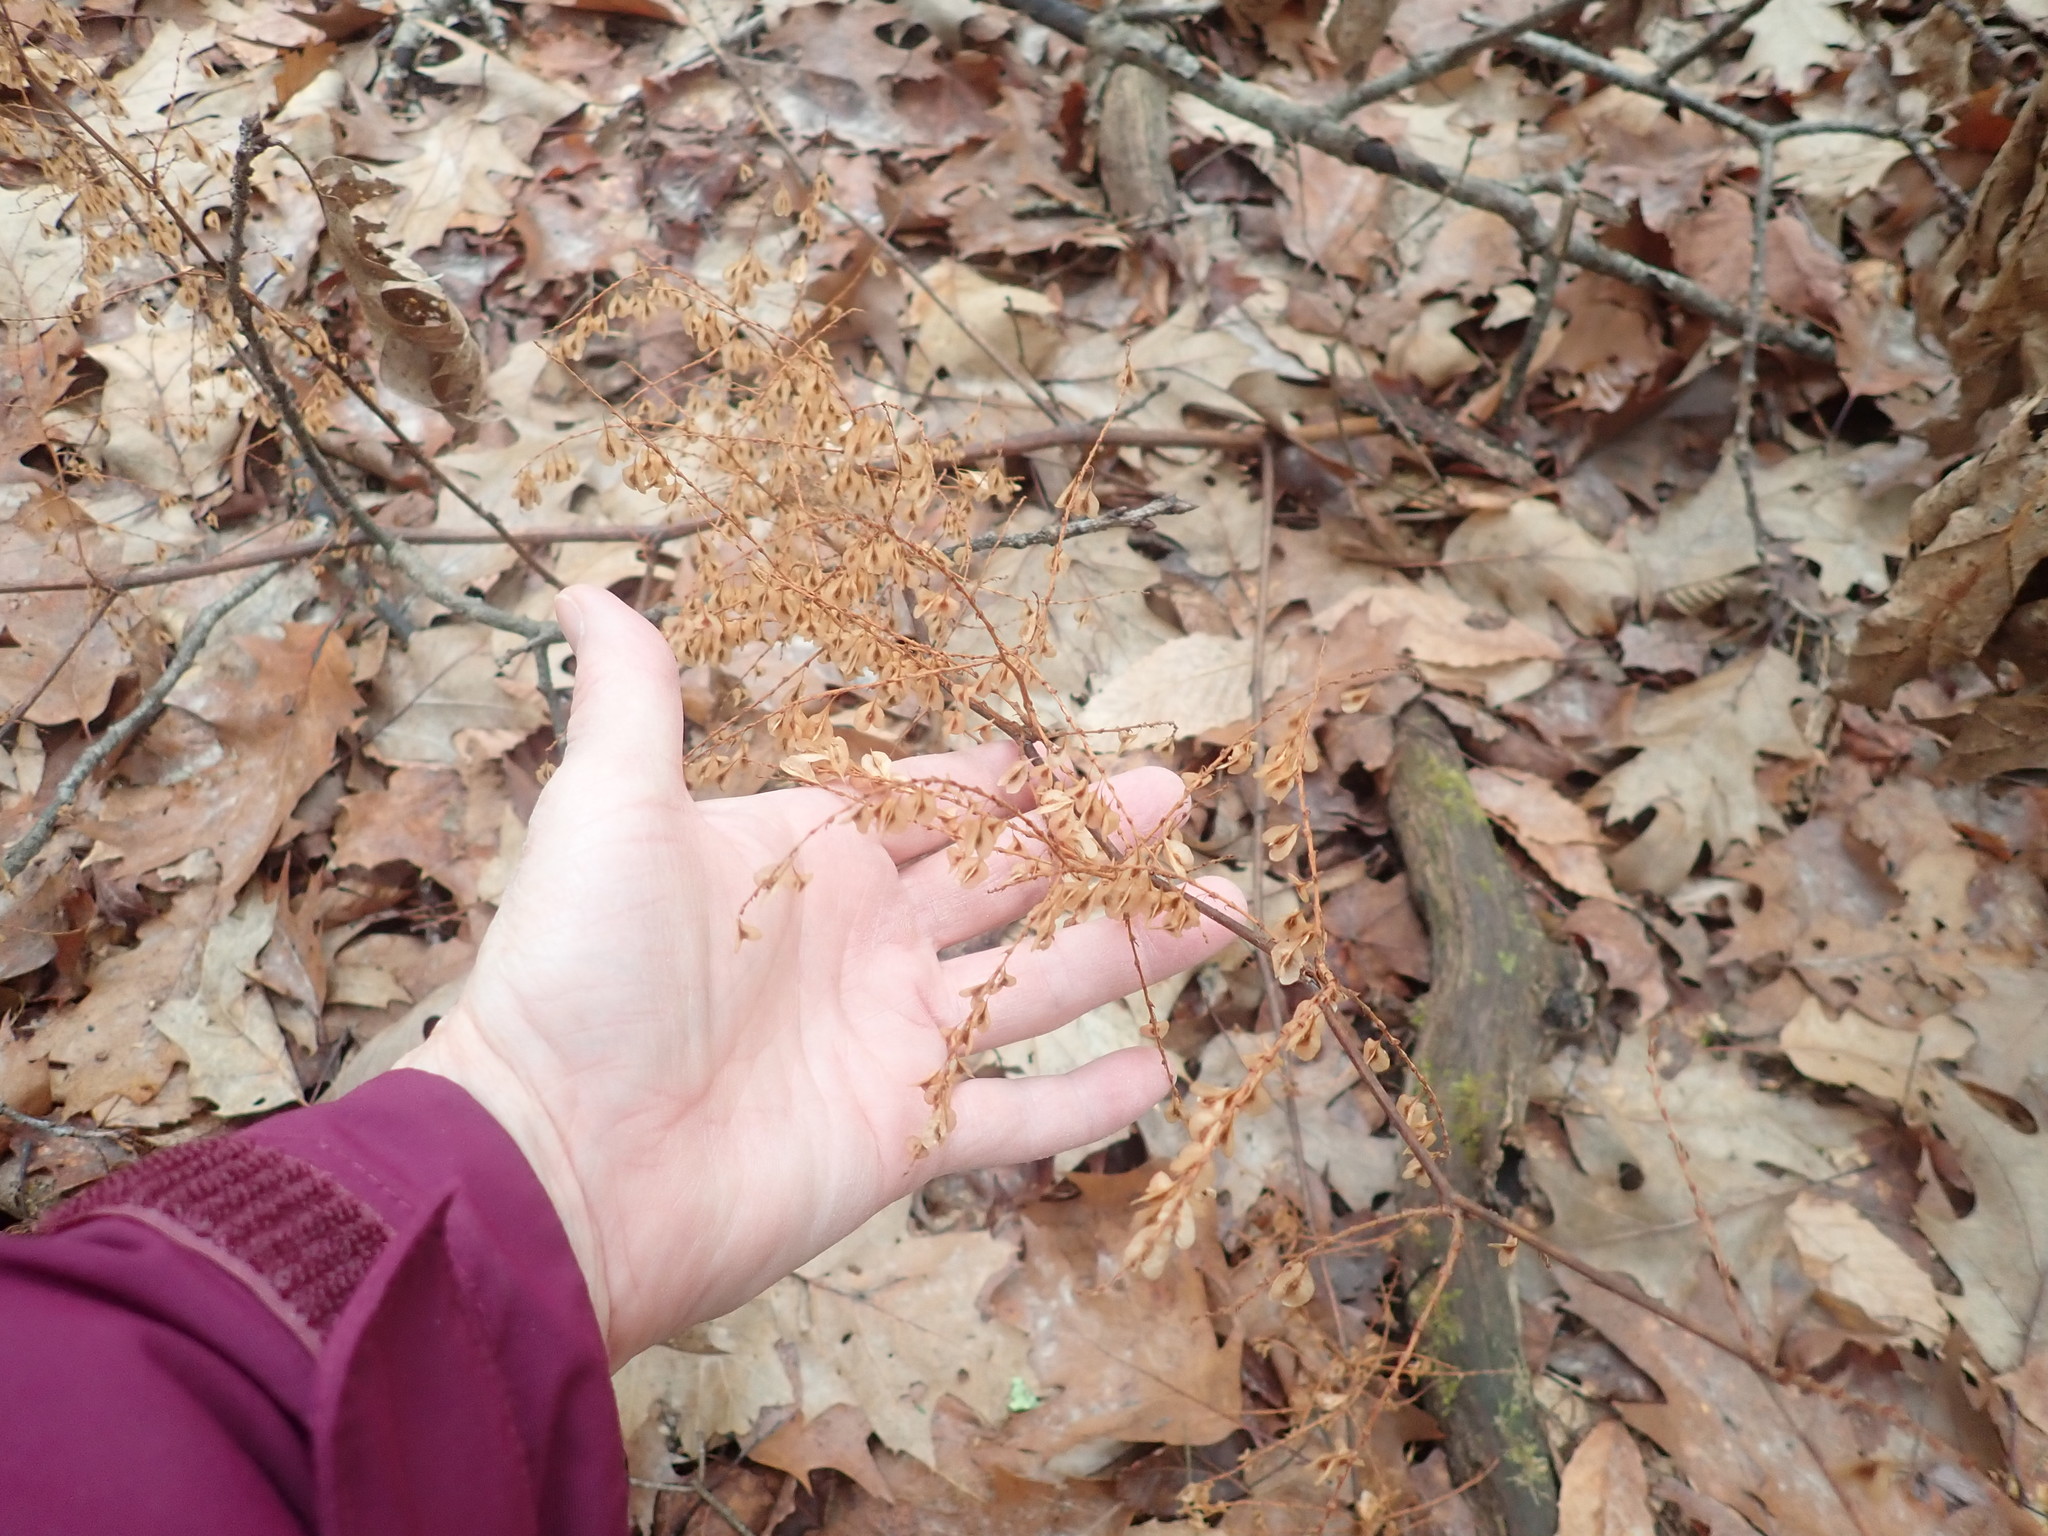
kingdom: Plantae
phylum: Tracheophyta
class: Magnoliopsida
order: Caryophyllales
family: Polygonaceae
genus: Reynoutria
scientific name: Reynoutria
